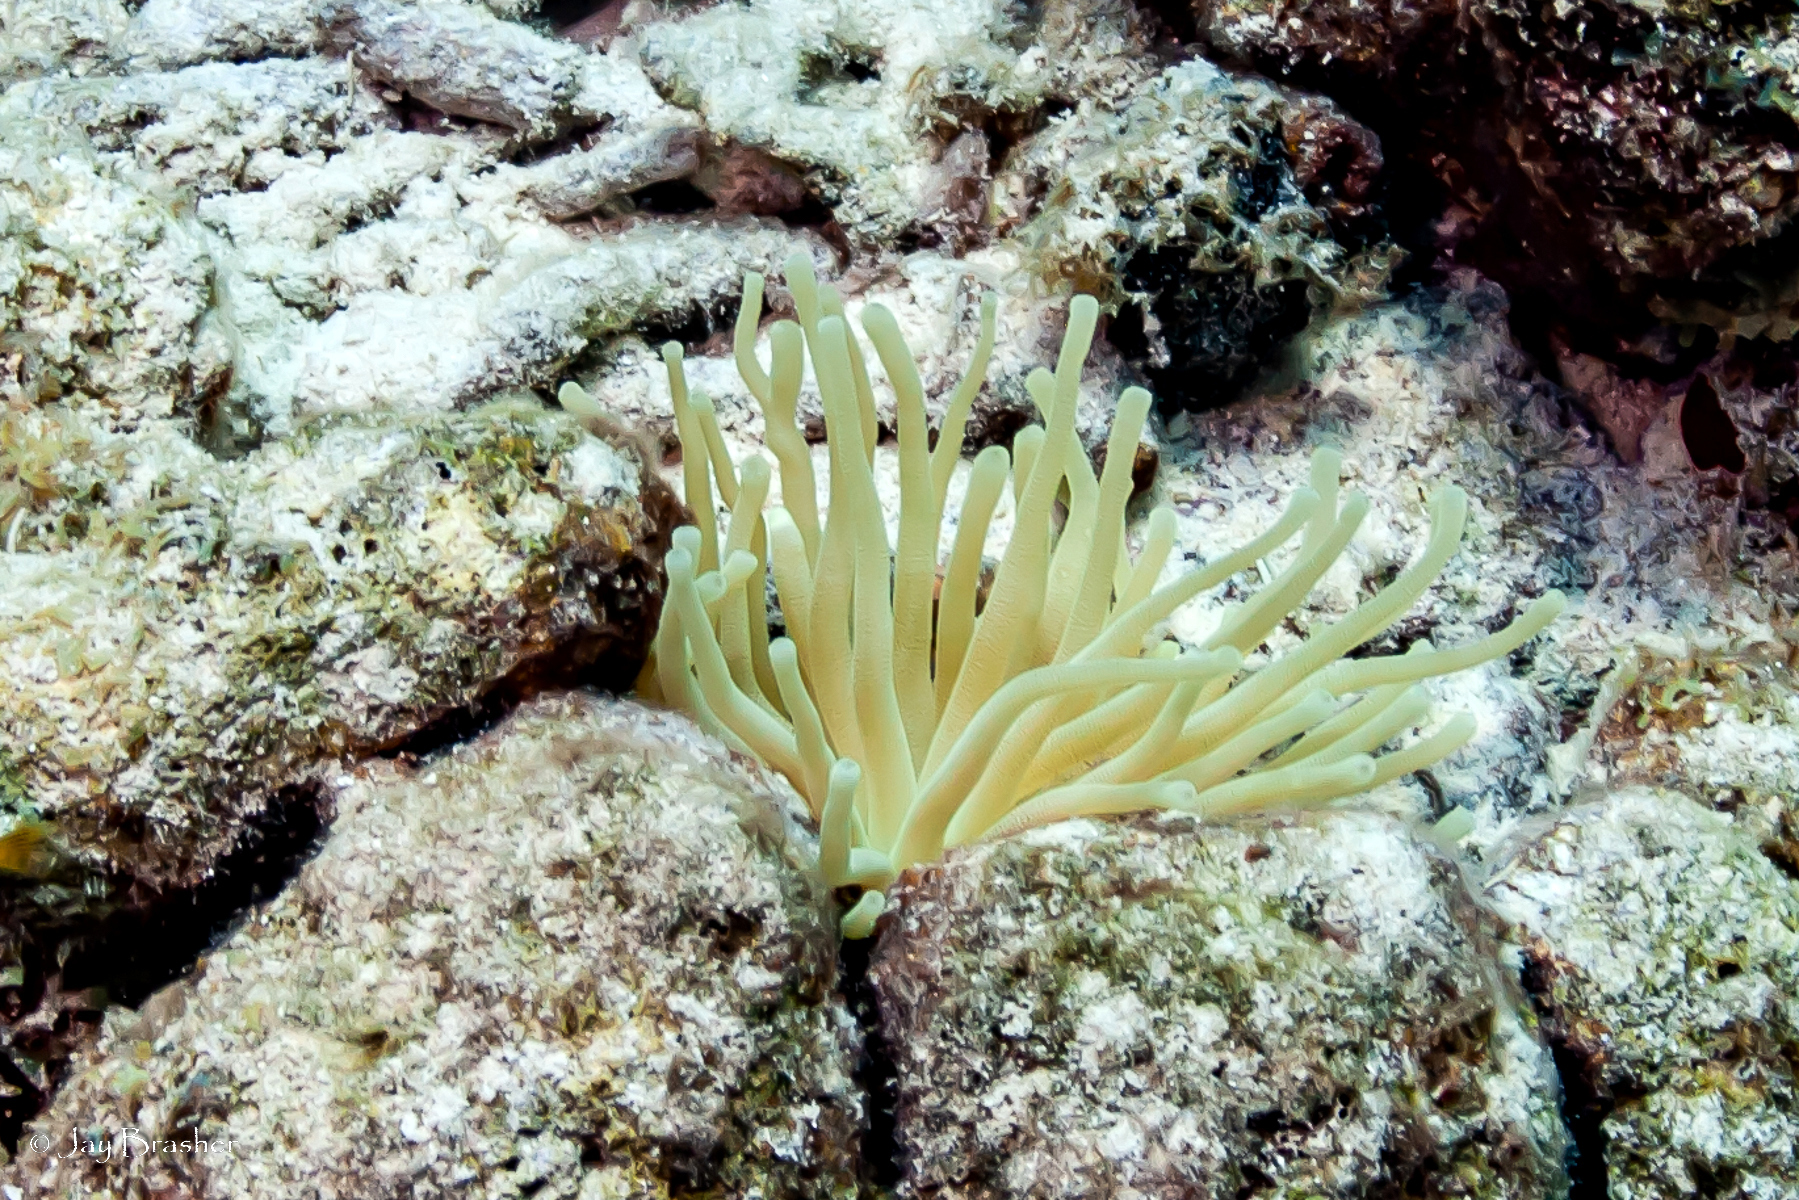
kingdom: Animalia
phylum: Cnidaria
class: Anthozoa
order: Actiniaria
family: Actiniidae
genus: Condylactis
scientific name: Condylactis gigantea
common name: Giant caribbean anemone
